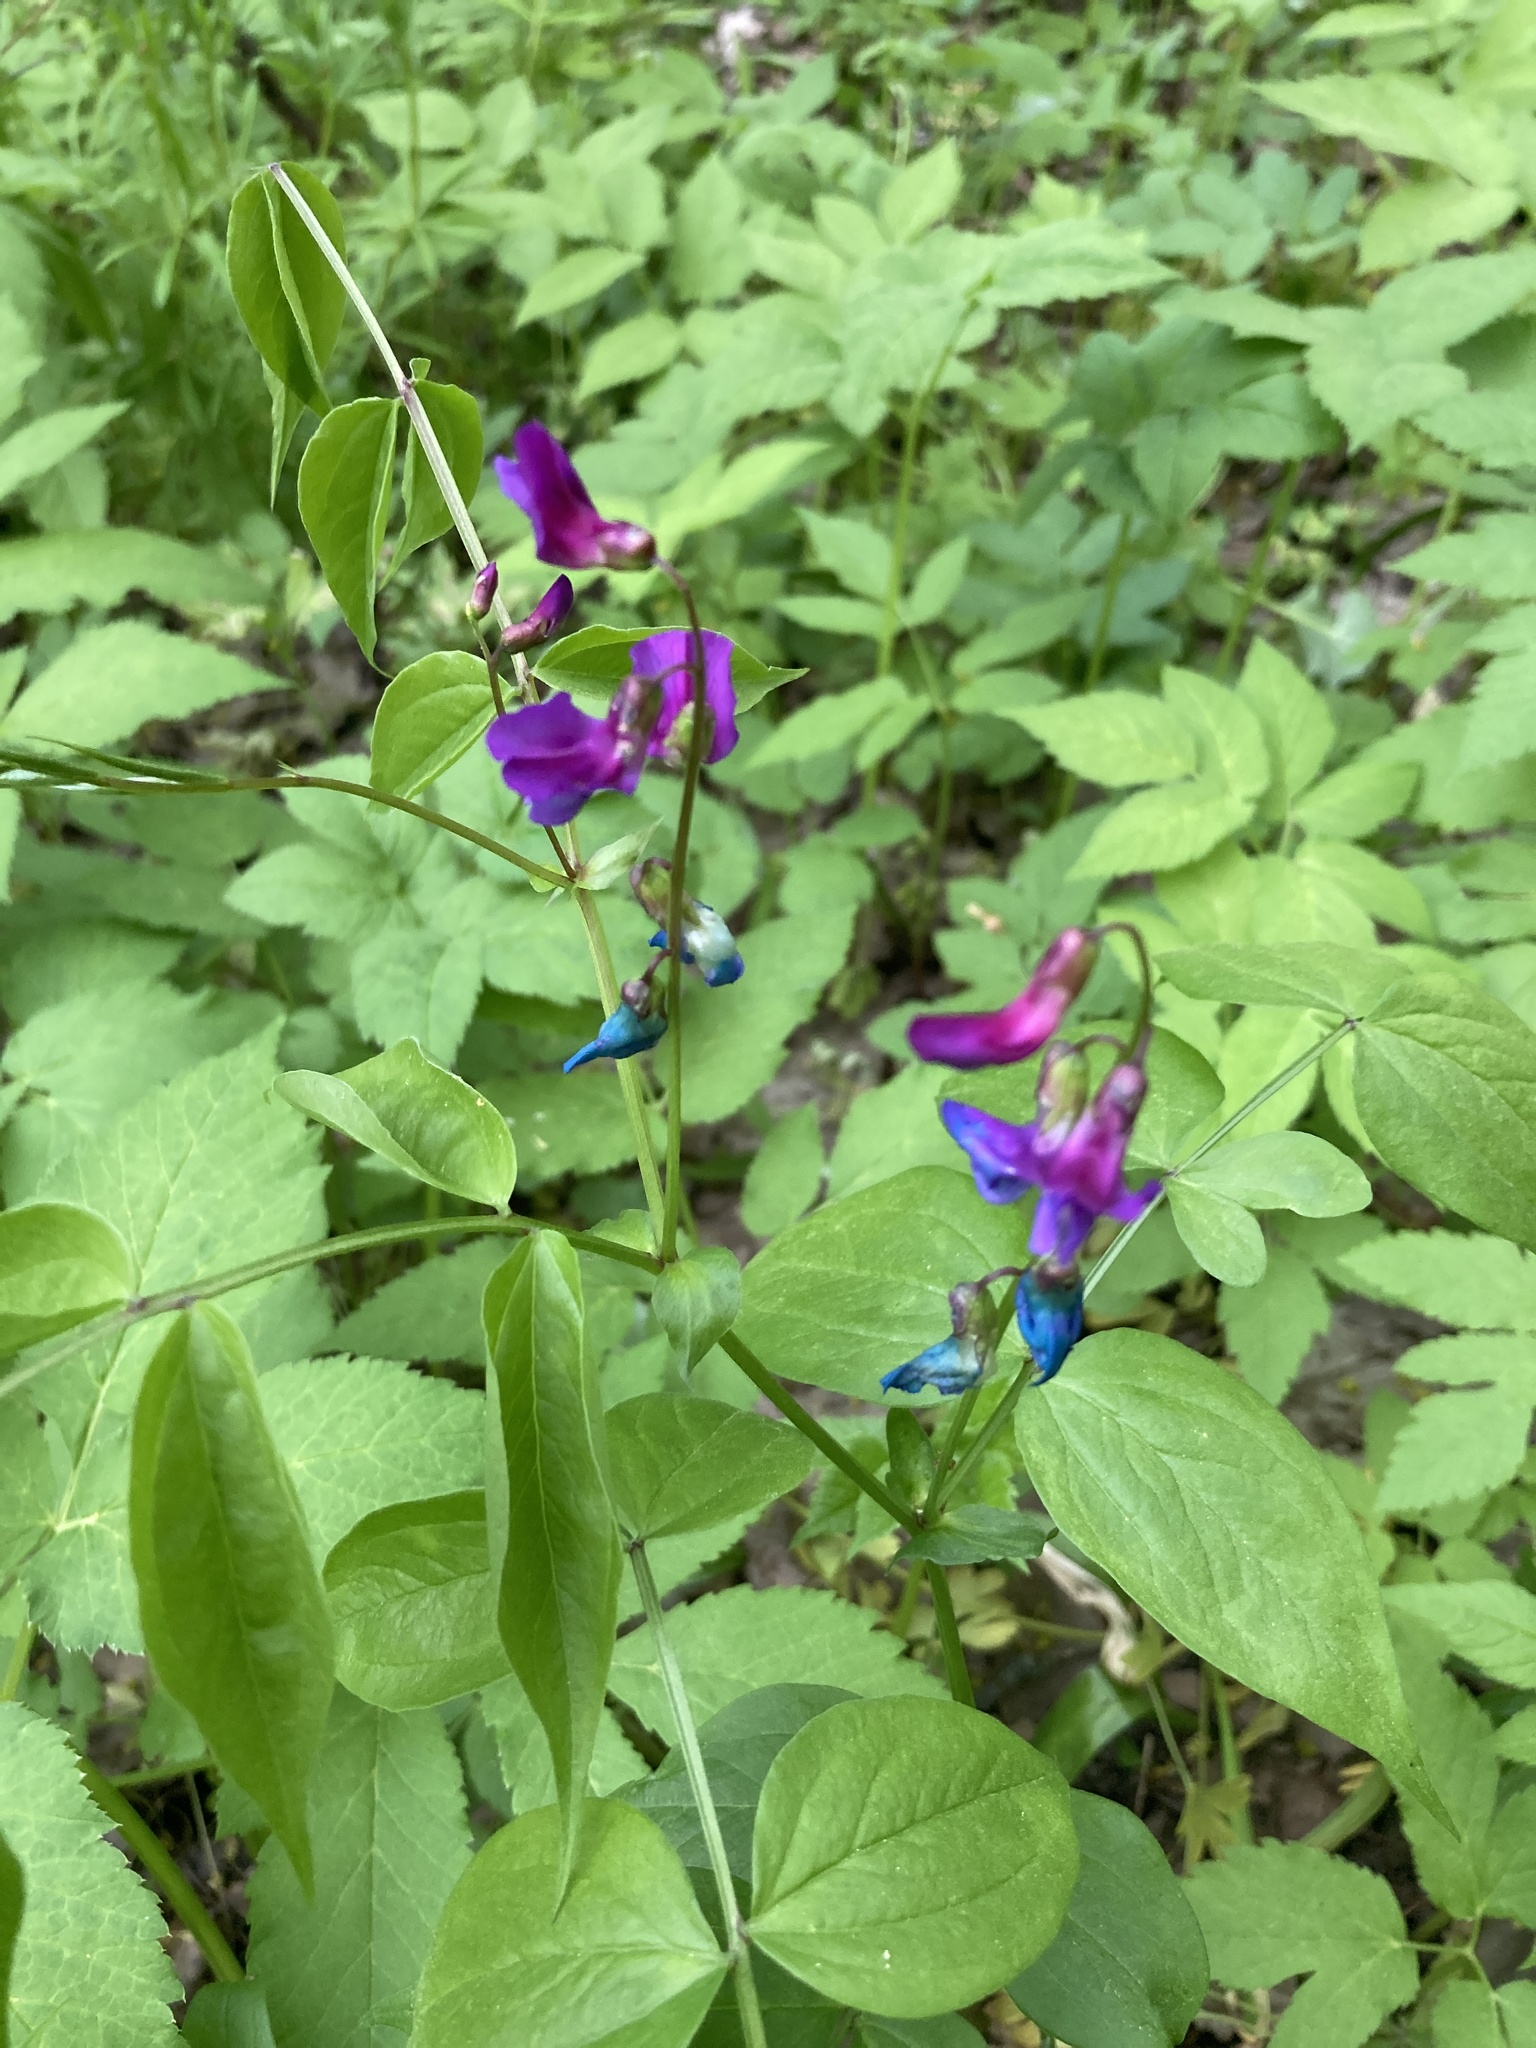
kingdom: Plantae
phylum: Tracheophyta
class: Magnoliopsida
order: Fabales
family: Fabaceae
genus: Lathyrus
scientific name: Lathyrus vernus
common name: Spring pea
